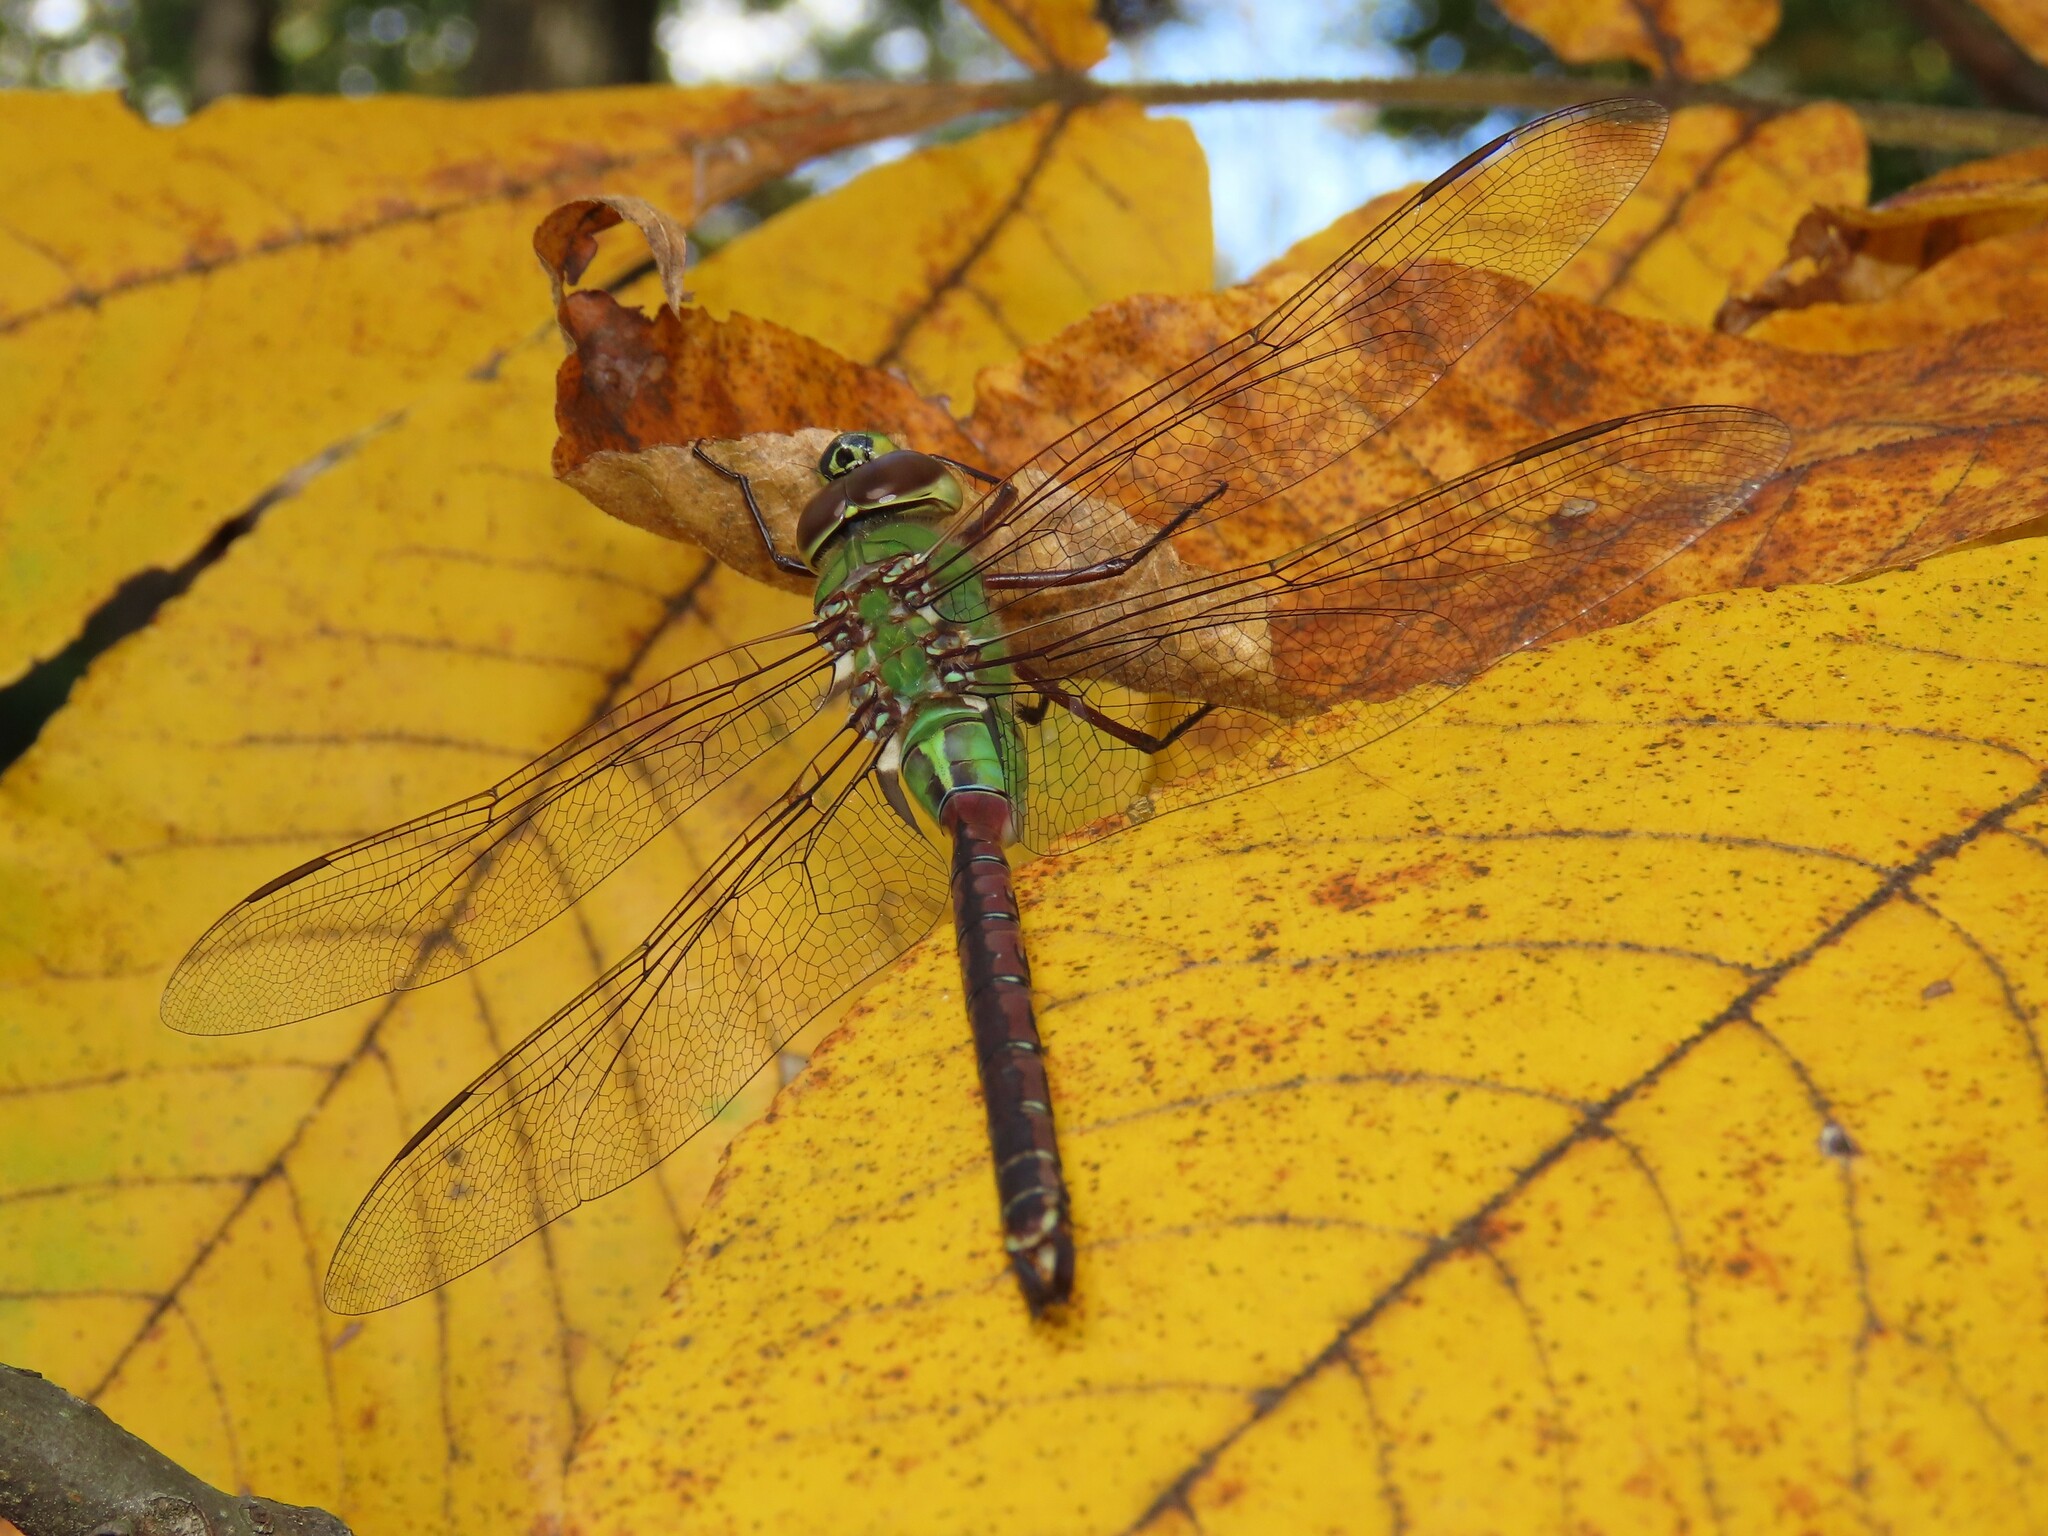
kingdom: Animalia
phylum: Arthropoda
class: Insecta
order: Odonata
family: Aeshnidae
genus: Anax
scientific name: Anax junius
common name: Common green darner
